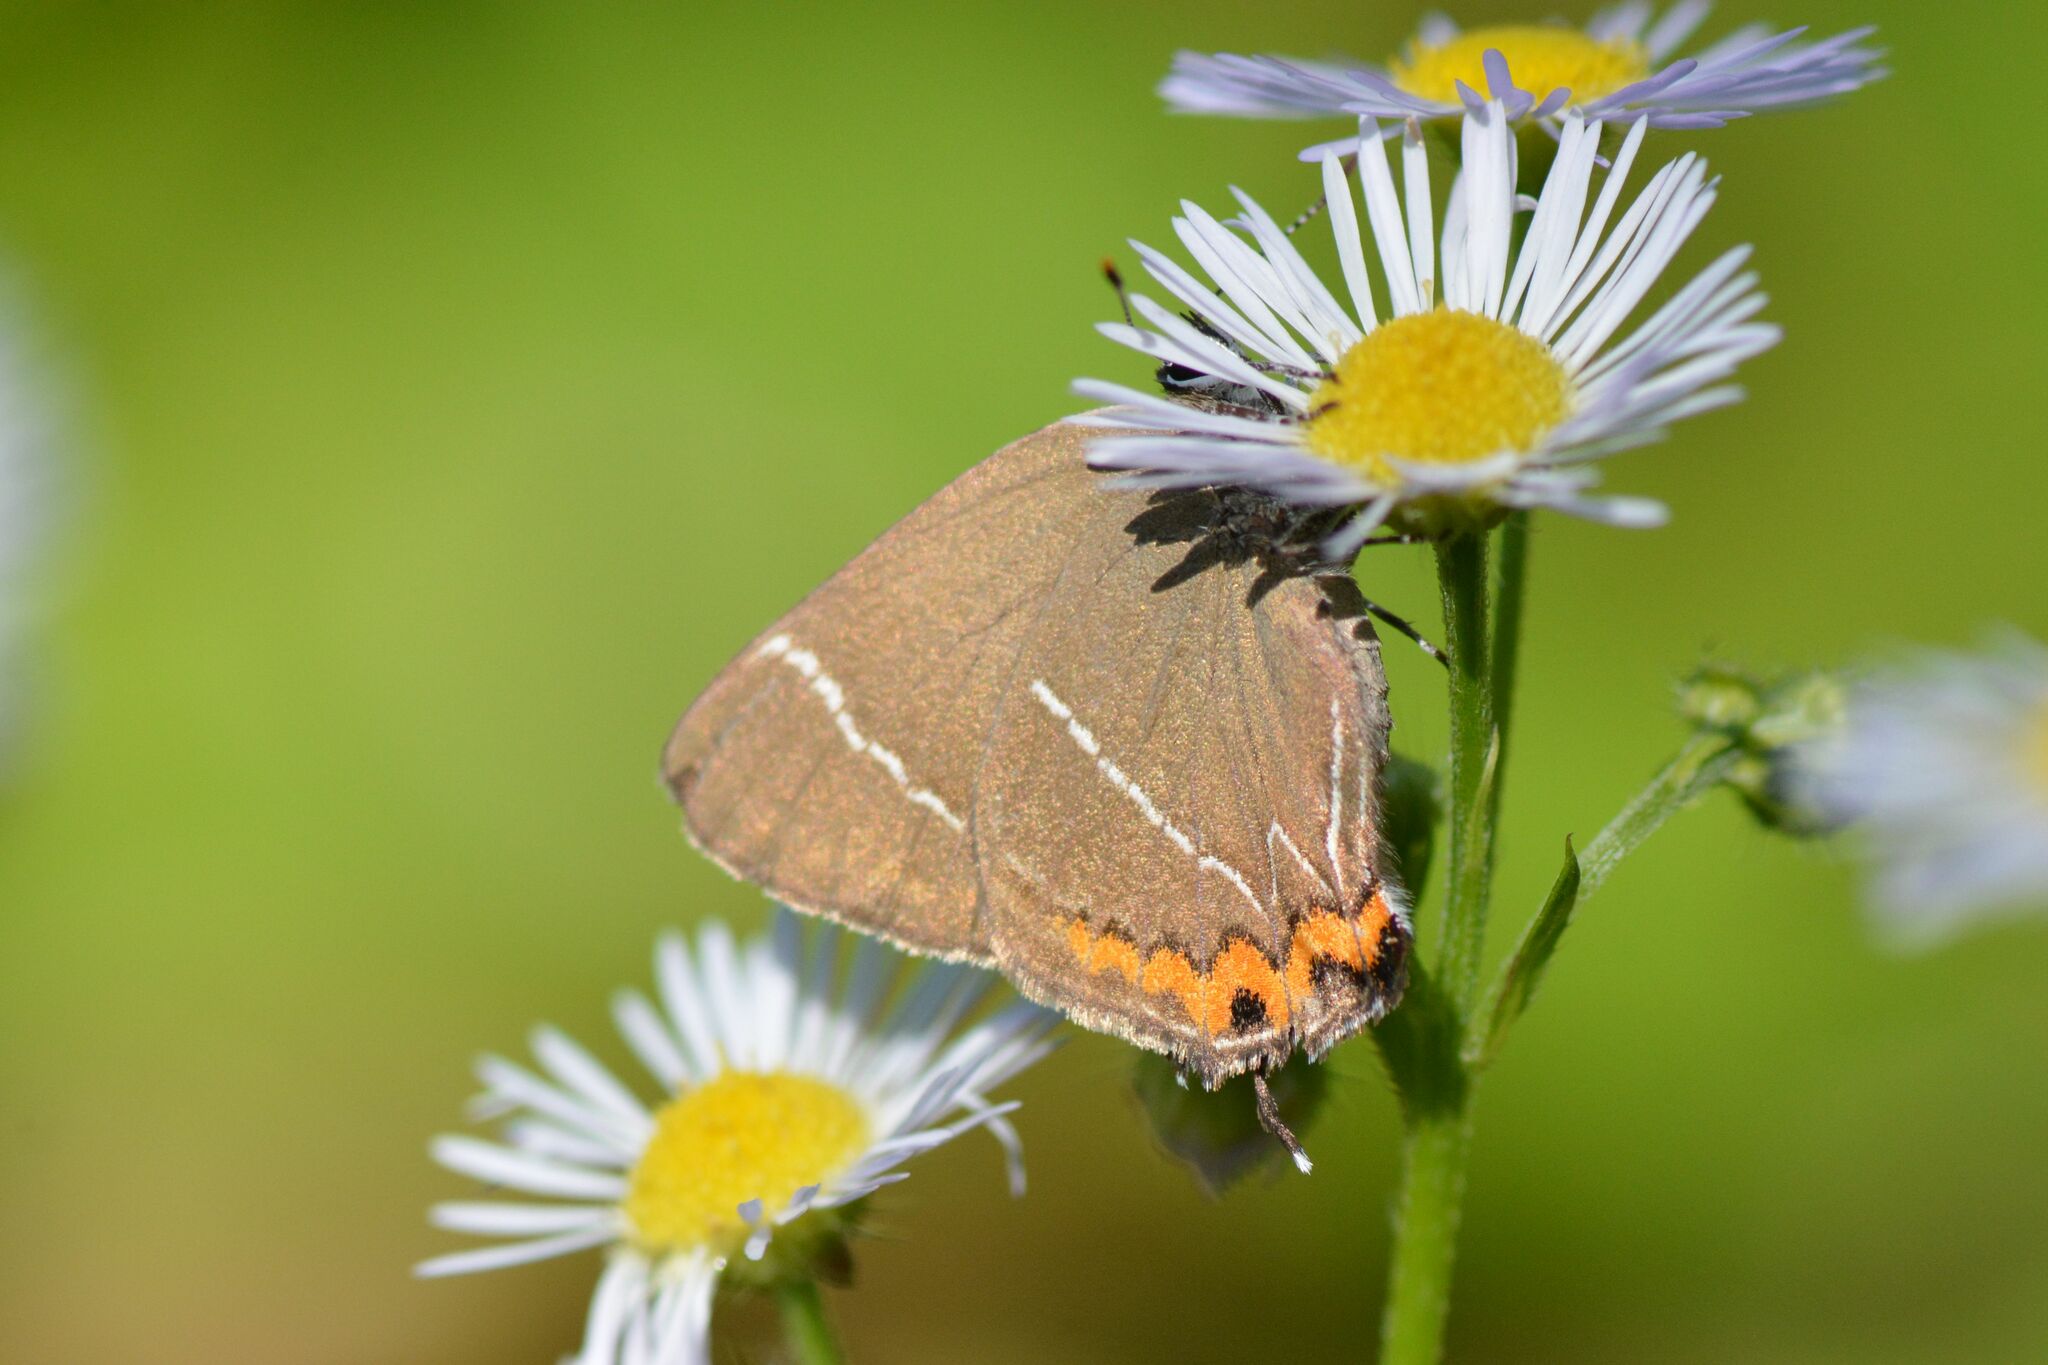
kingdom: Animalia
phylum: Arthropoda
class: Insecta
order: Lepidoptera
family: Lycaenidae
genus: Satyrium
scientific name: Satyrium w-album
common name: White-letter hairstreak
